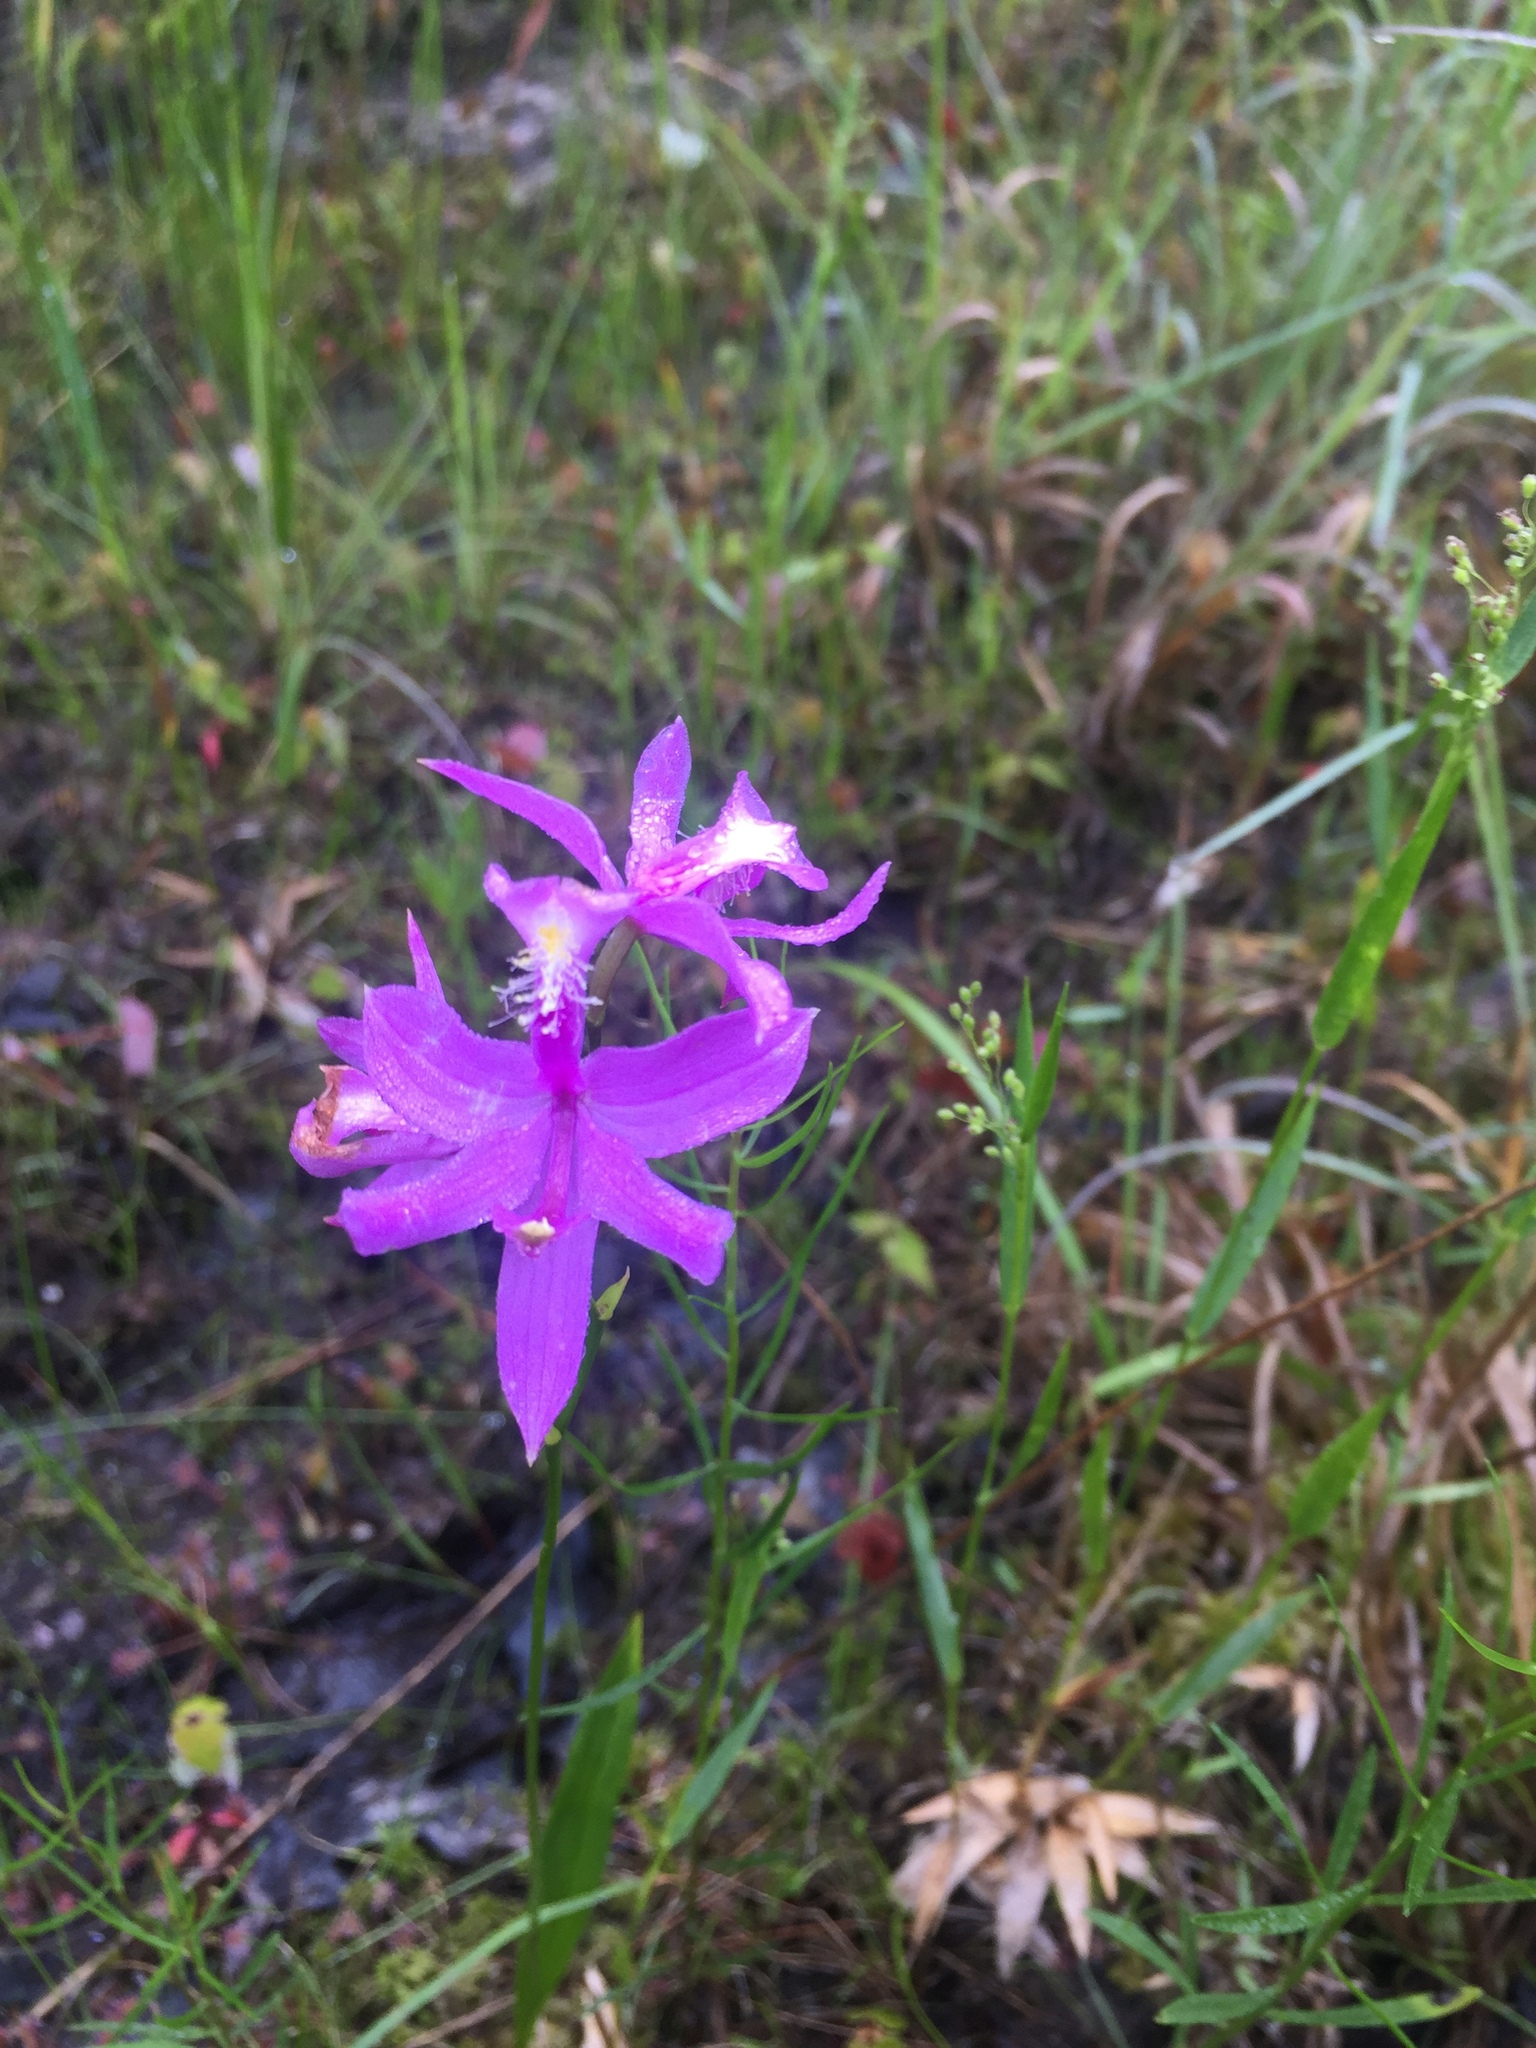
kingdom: Plantae
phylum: Tracheophyta
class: Liliopsida
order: Asparagales
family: Orchidaceae
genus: Calopogon
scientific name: Calopogon tuberosus
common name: Grass-pink
